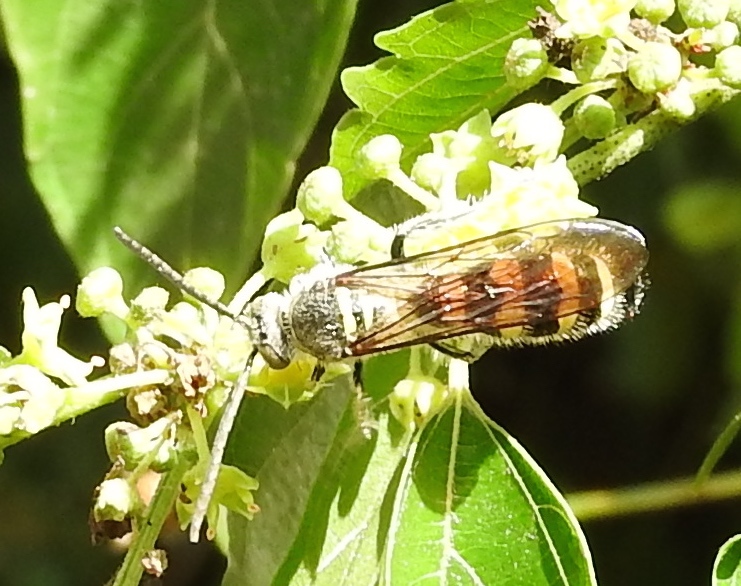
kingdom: Animalia
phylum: Arthropoda
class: Insecta
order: Hymenoptera
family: Scoliidae
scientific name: Scoliidae
